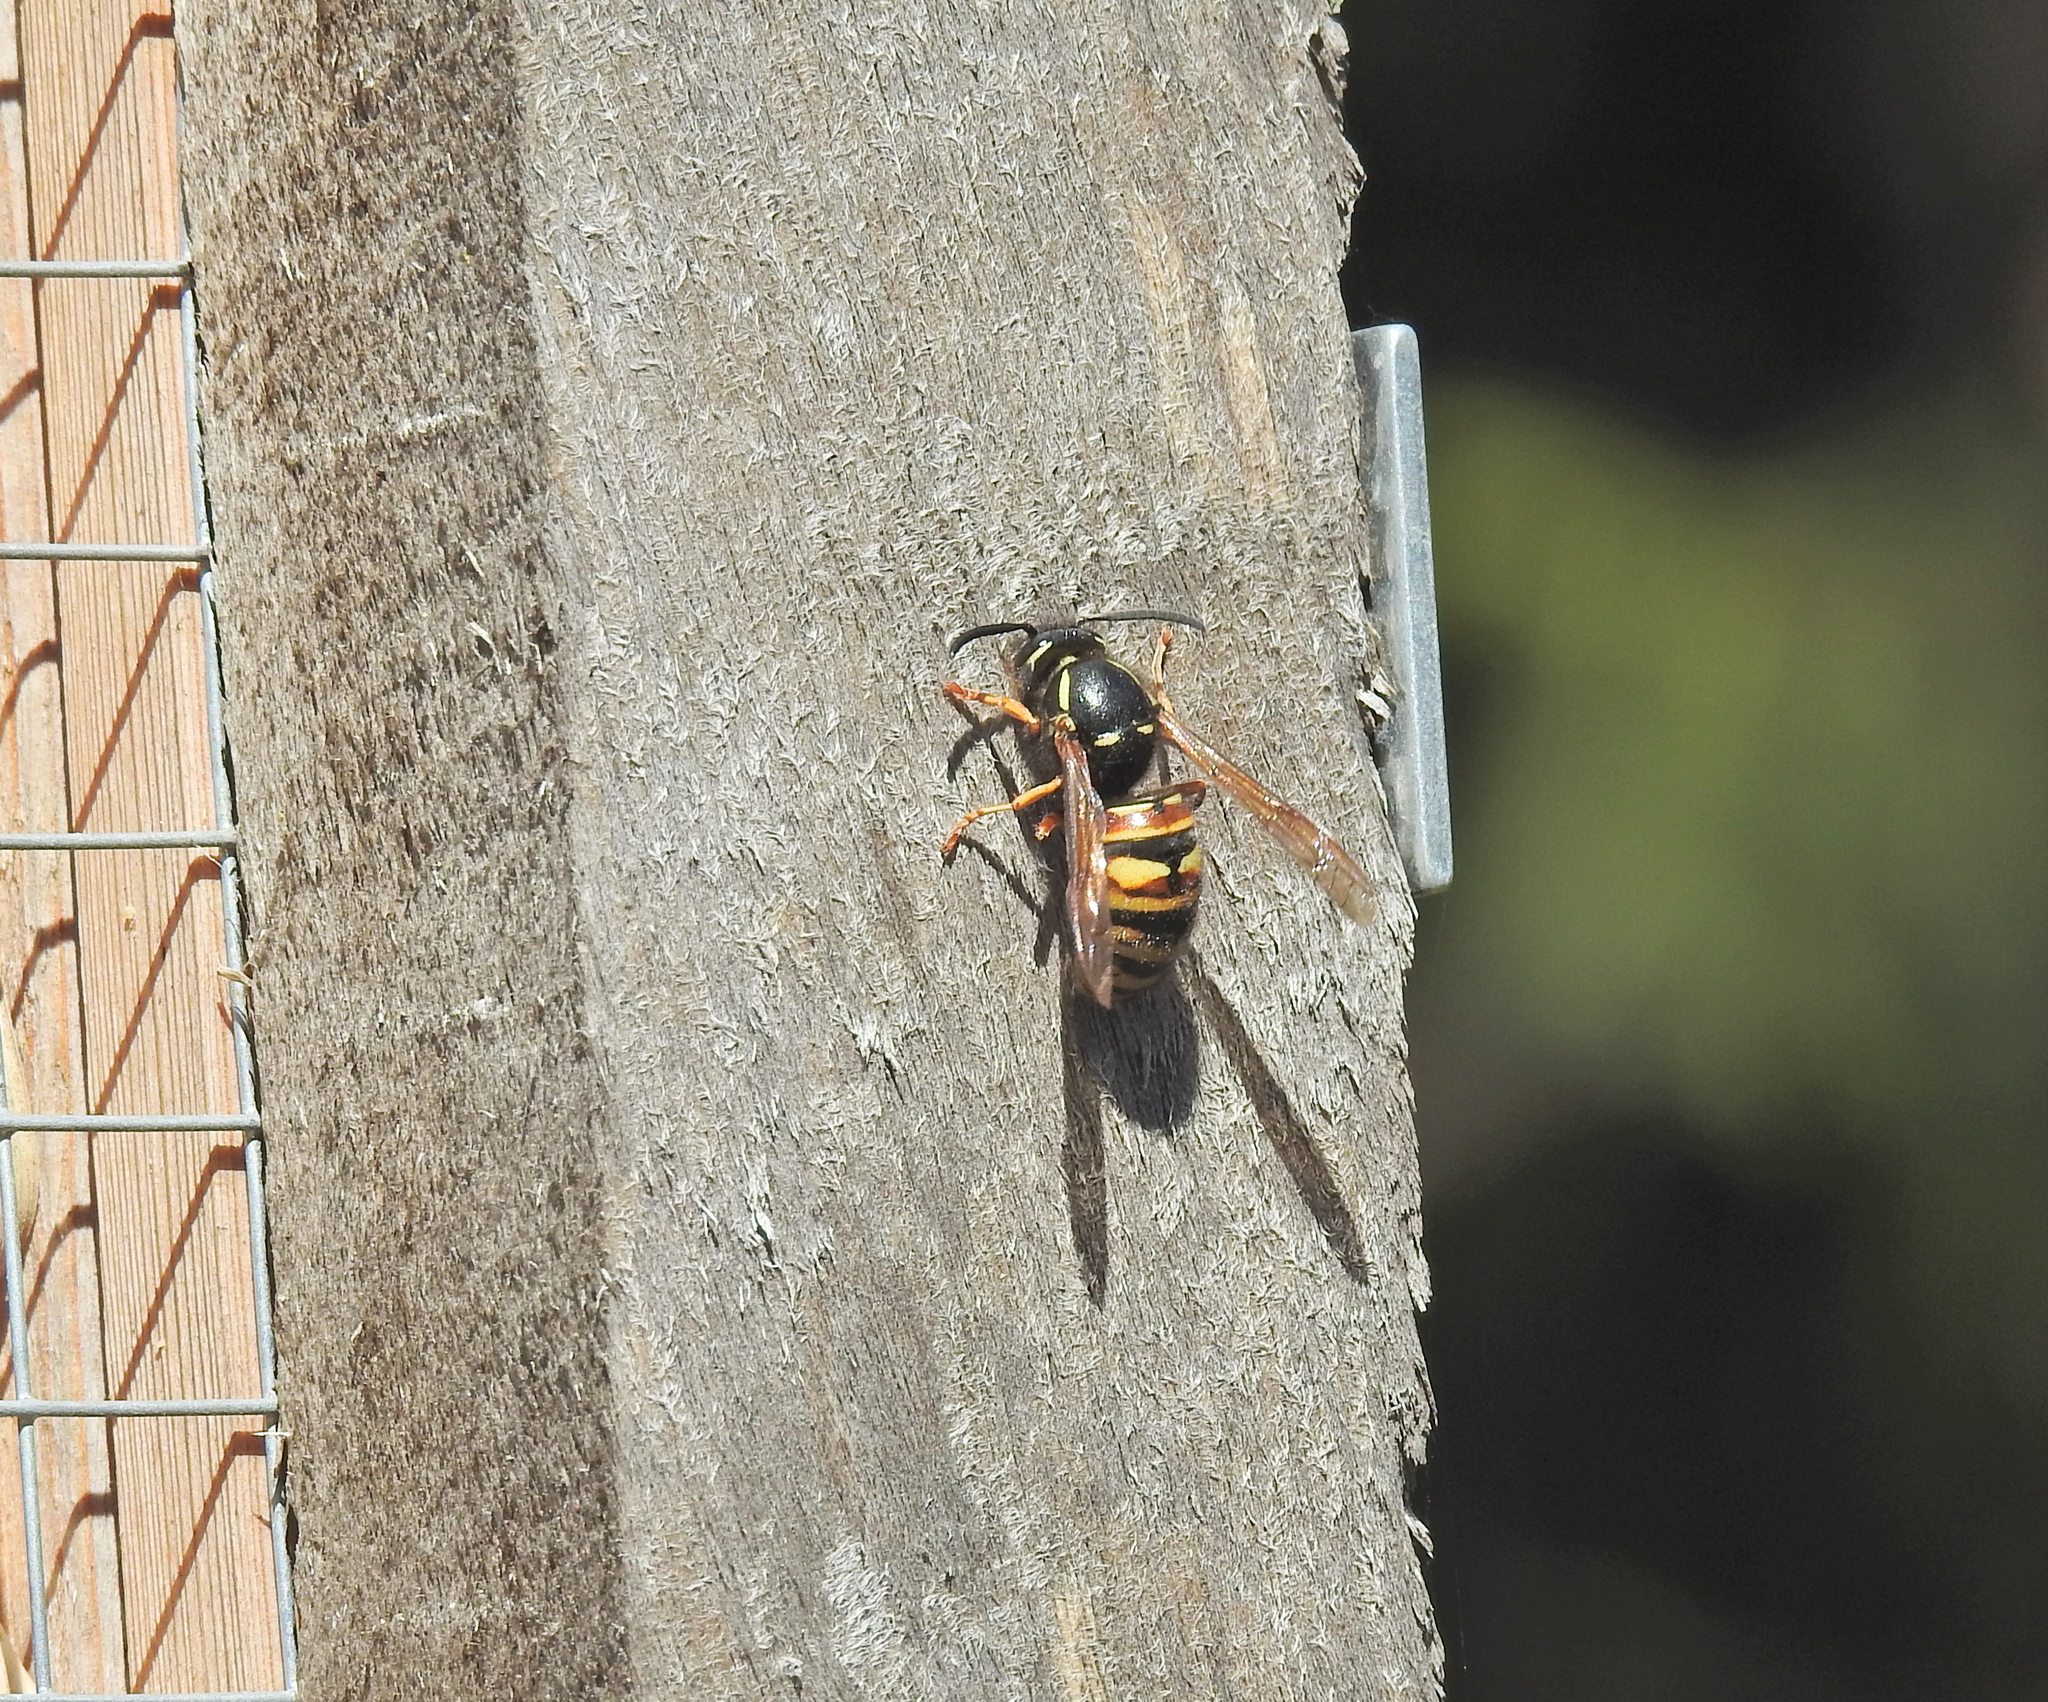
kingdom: Animalia
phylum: Arthropoda
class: Insecta
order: Hymenoptera
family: Vespidae
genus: Vespula
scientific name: Vespula rufa
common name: Red wasp
